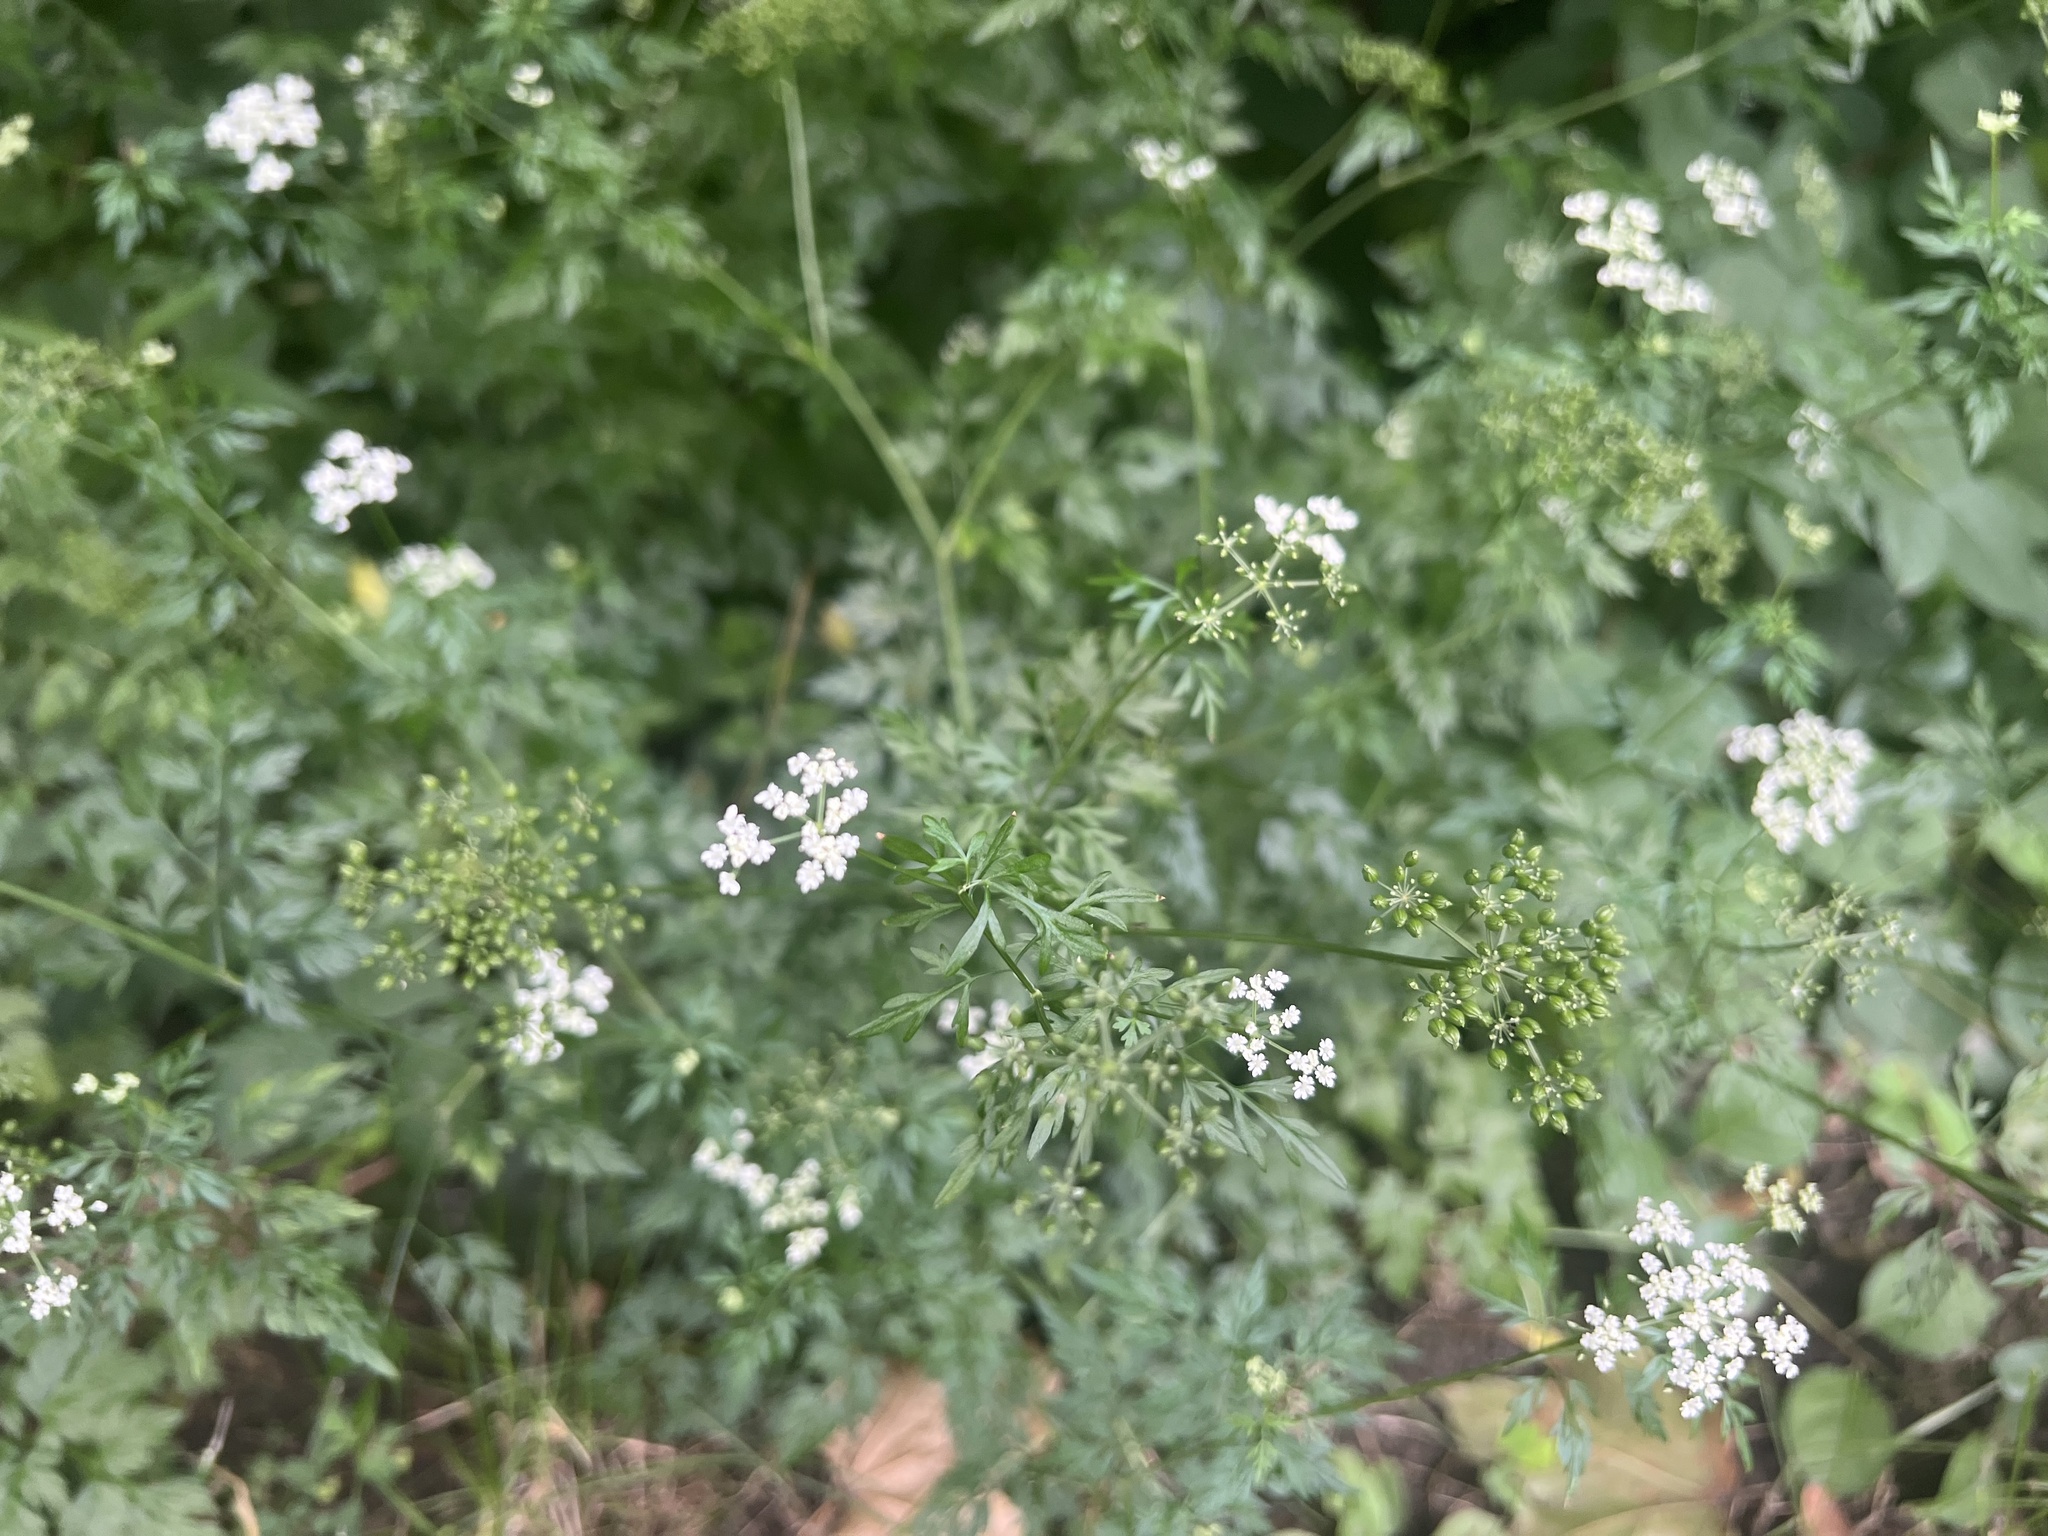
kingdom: Plantae
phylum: Tracheophyta
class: Magnoliopsida
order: Apiales
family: Apiaceae
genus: Aethusa
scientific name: Aethusa cynapium
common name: Fool's parsley
